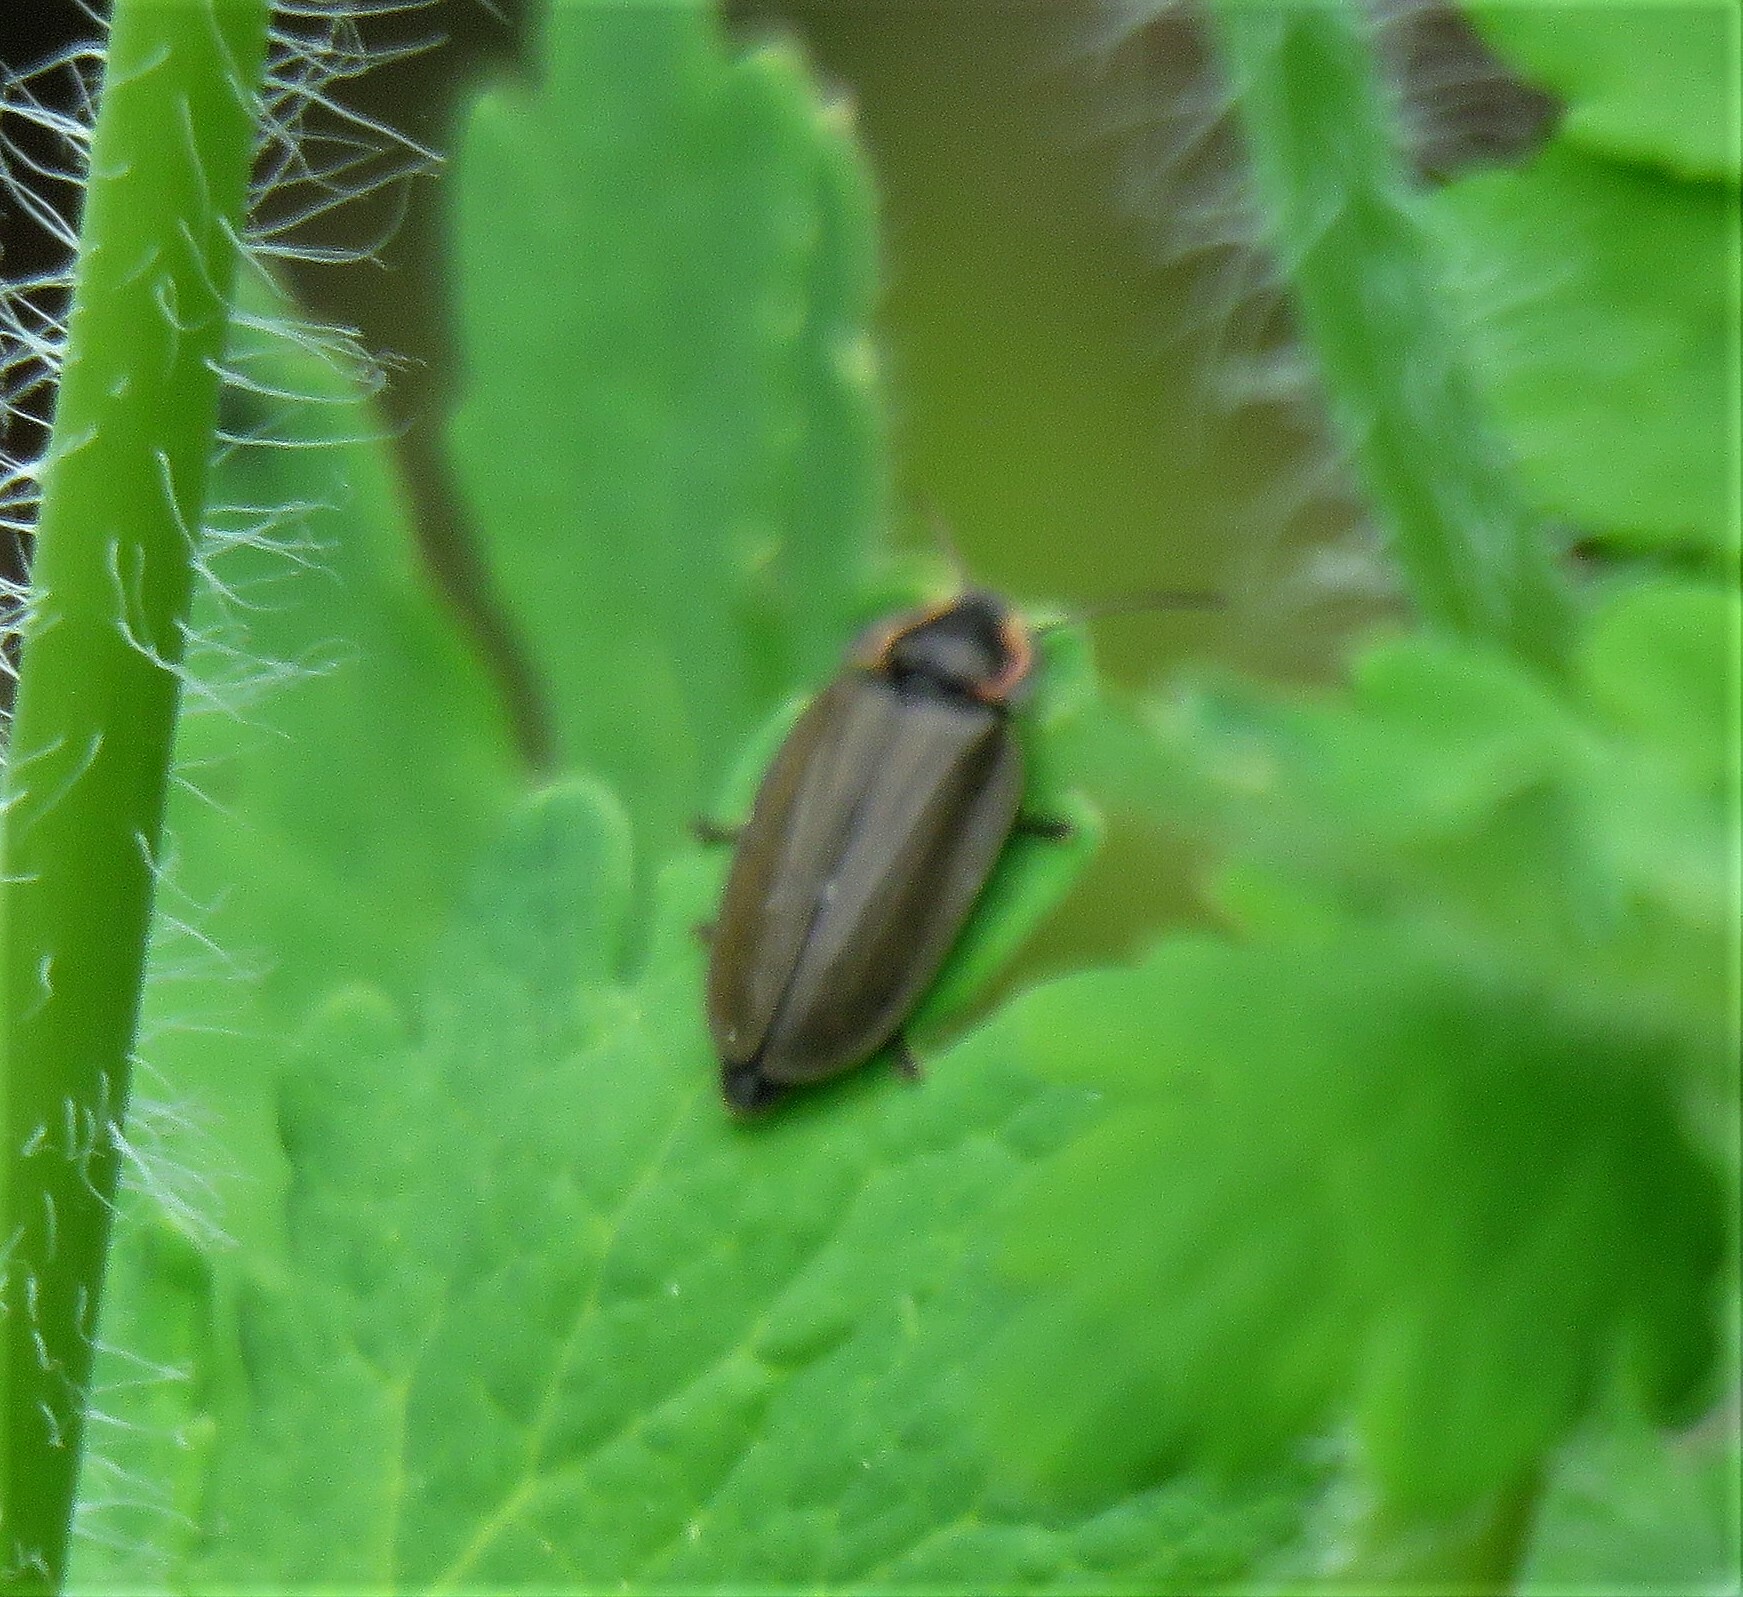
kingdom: Animalia
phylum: Arthropoda
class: Insecta
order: Coleoptera
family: Lampyridae
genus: Photinus
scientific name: Photinus corrusca
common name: Winter firefly
